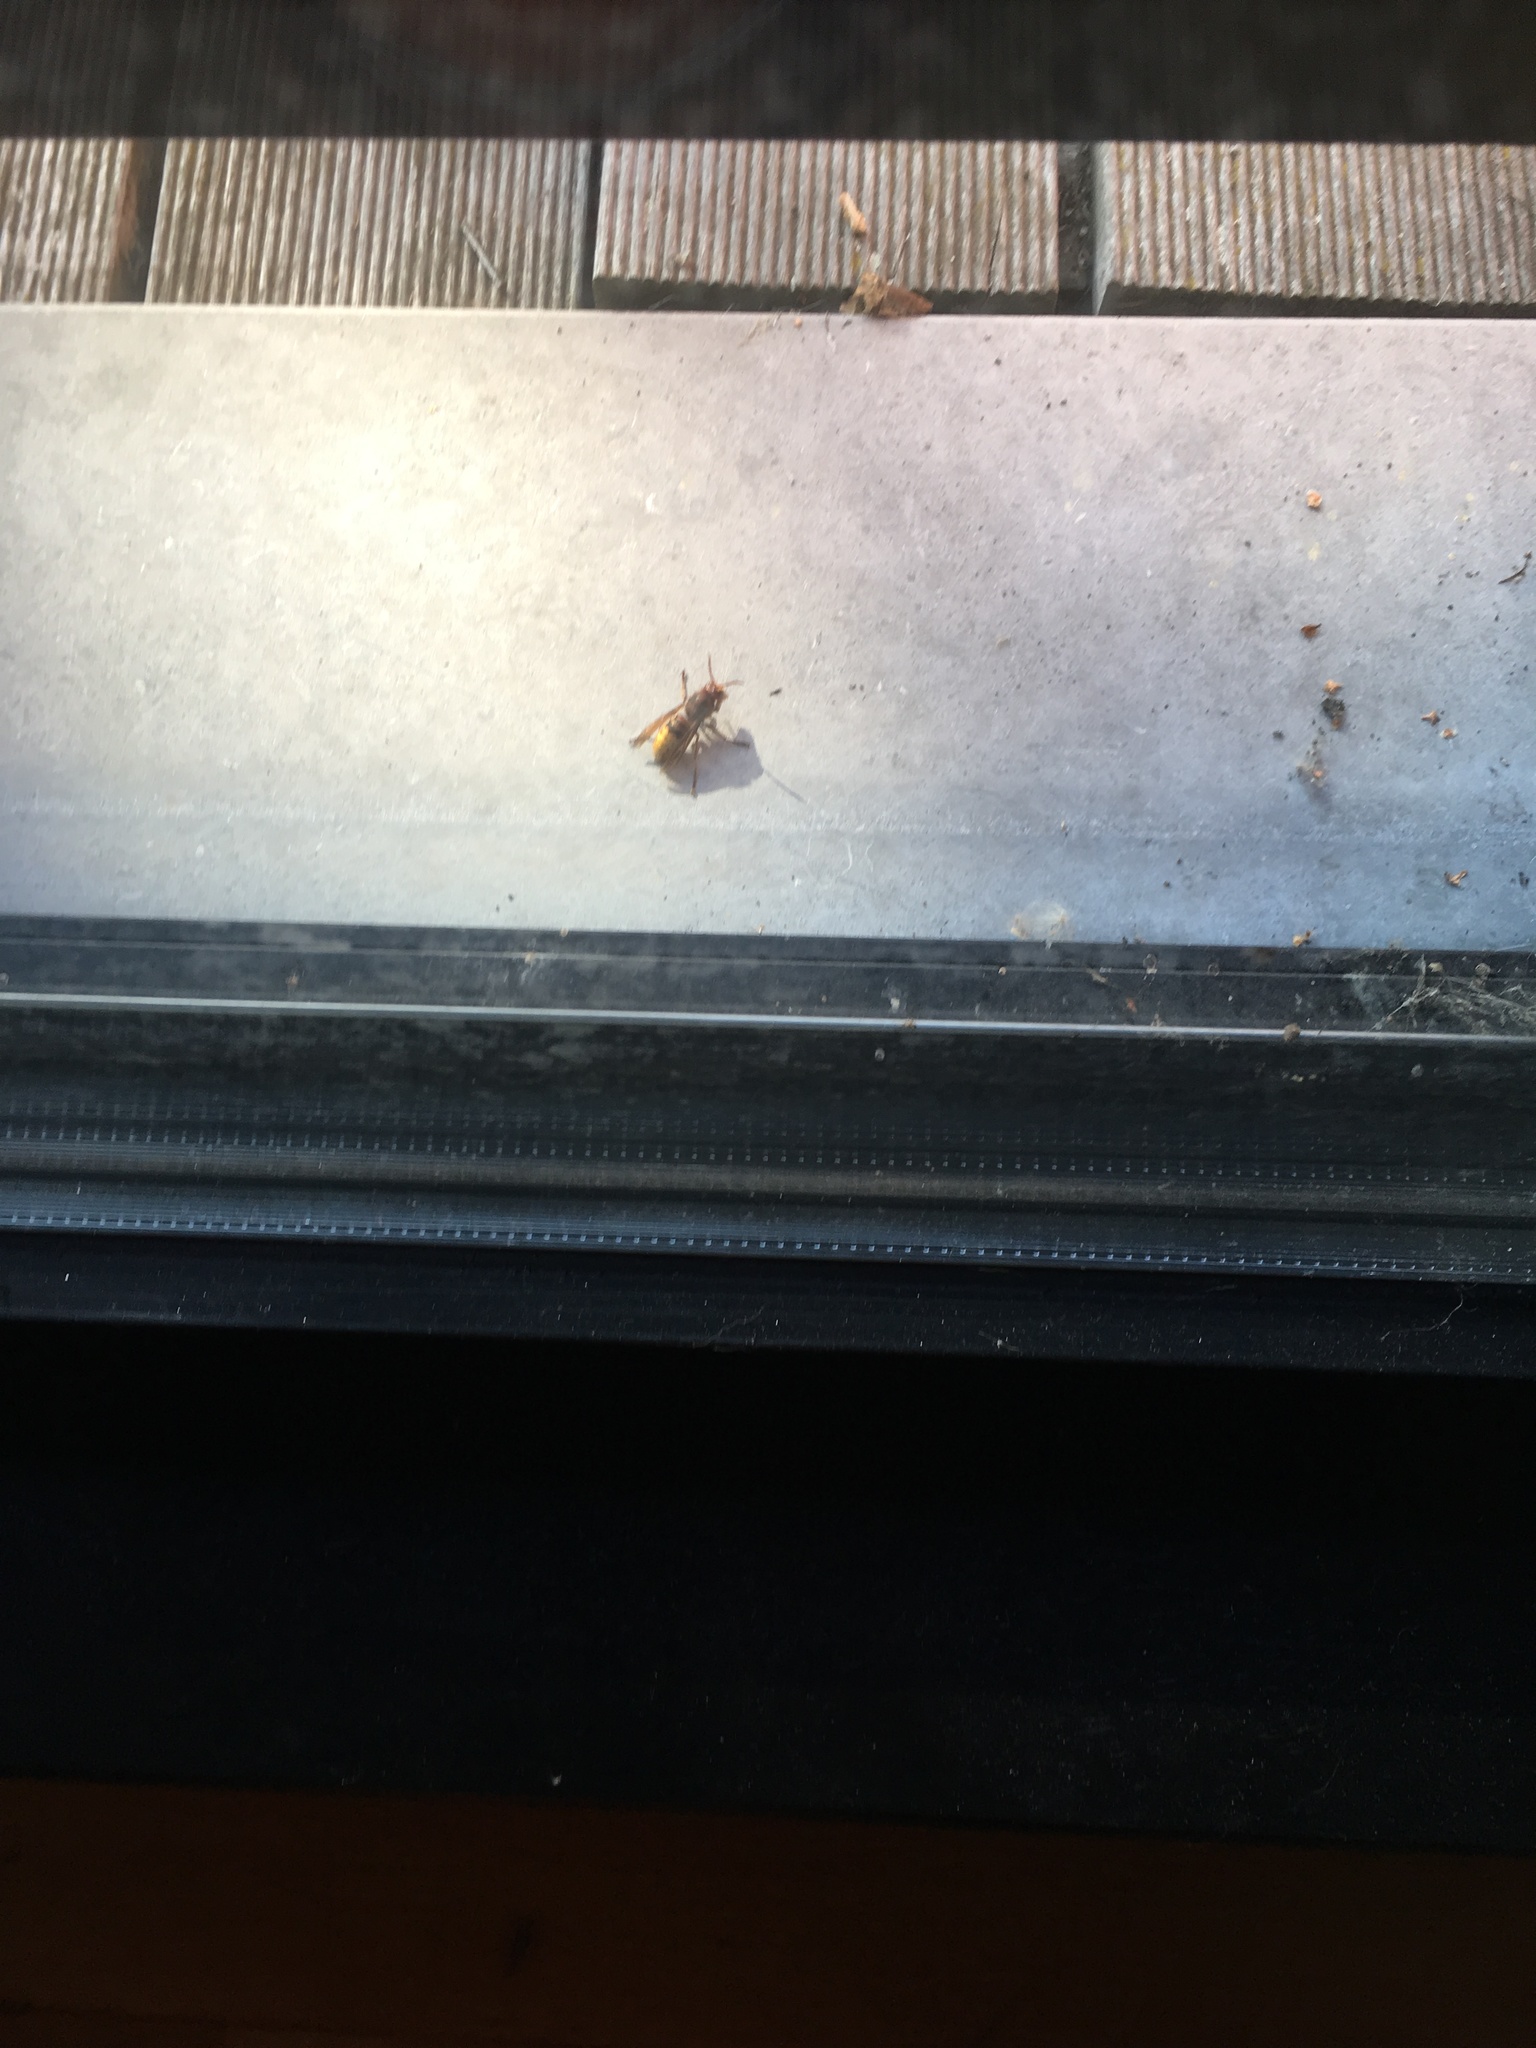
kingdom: Animalia
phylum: Arthropoda
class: Insecta
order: Hymenoptera
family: Vespidae
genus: Vespa
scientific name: Vespa crabro
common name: Hornet
